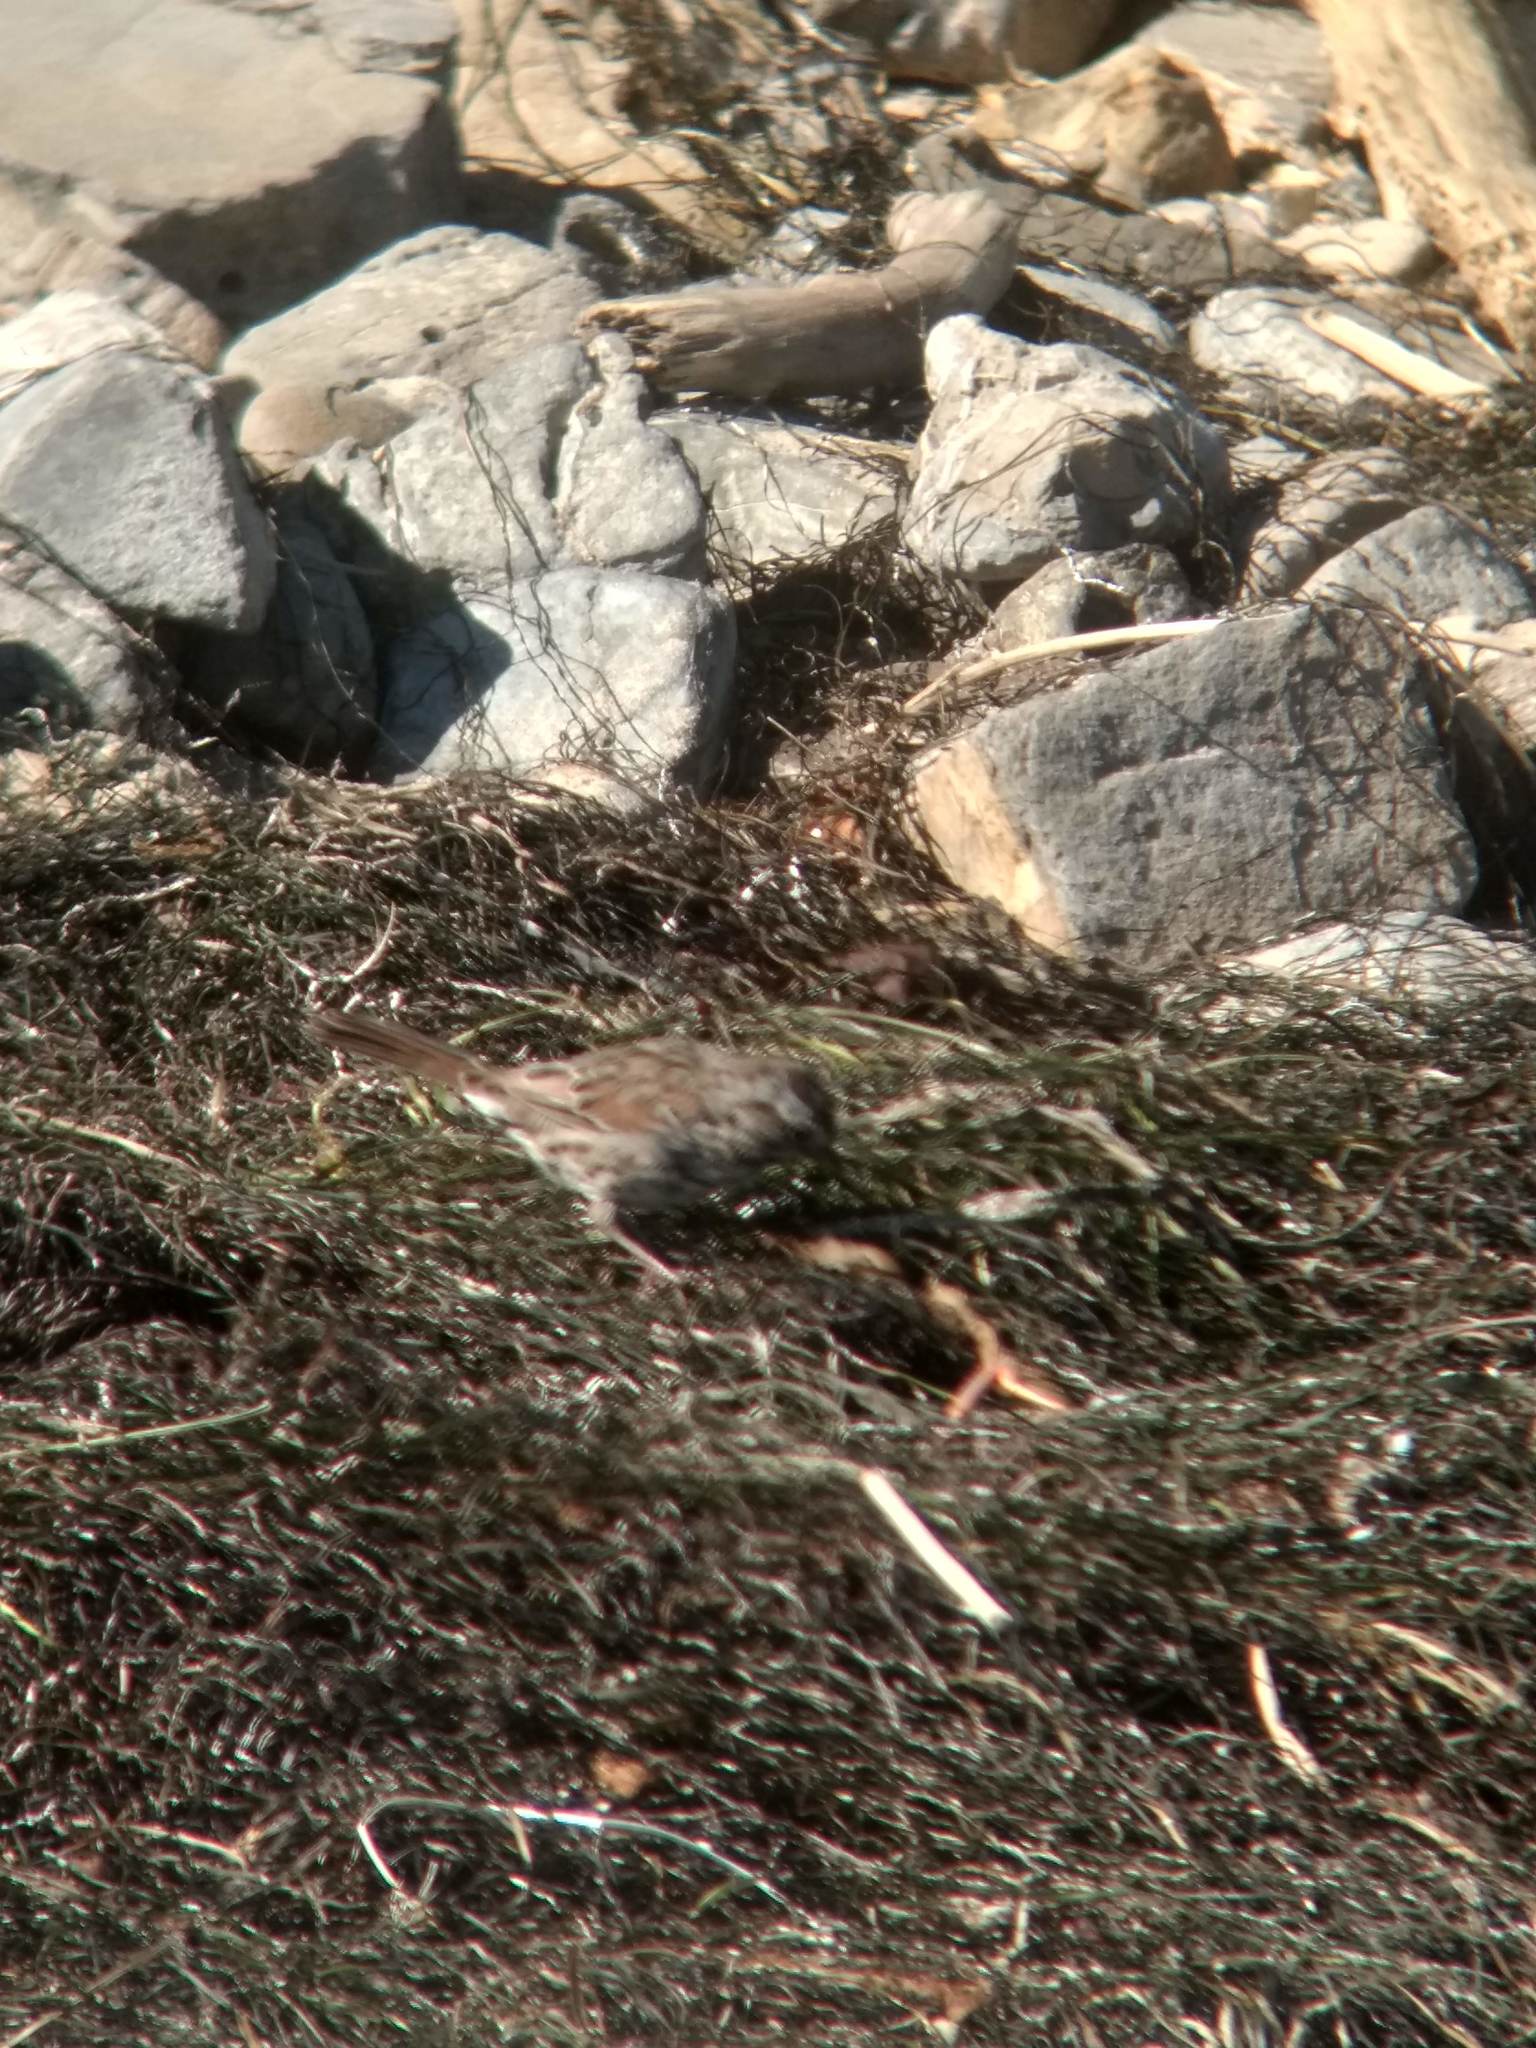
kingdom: Animalia
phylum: Chordata
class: Aves
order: Passeriformes
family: Passerellidae
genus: Melospiza
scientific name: Melospiza melodia
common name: Song sparrow
